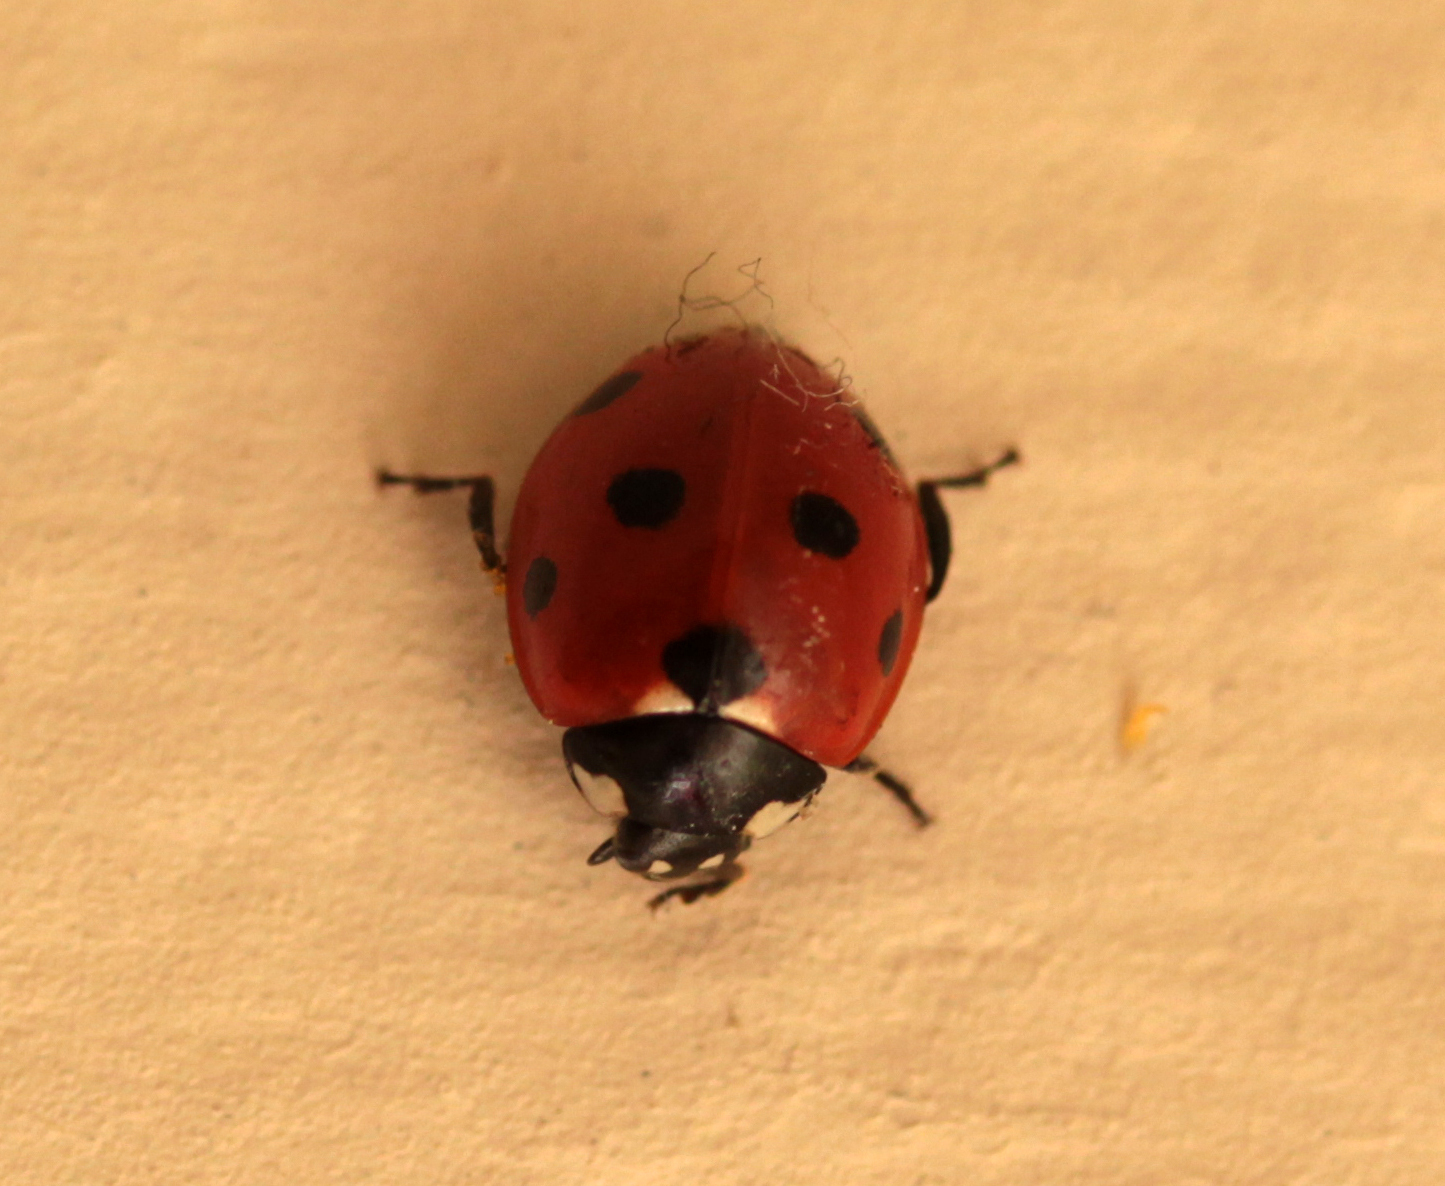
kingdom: Animalia
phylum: Arthropoda
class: Insecta
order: Coleoptera
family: Coccinellidae
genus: Coccinella
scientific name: Coccinella septempunctata
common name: Sevenspotted lady beetle
